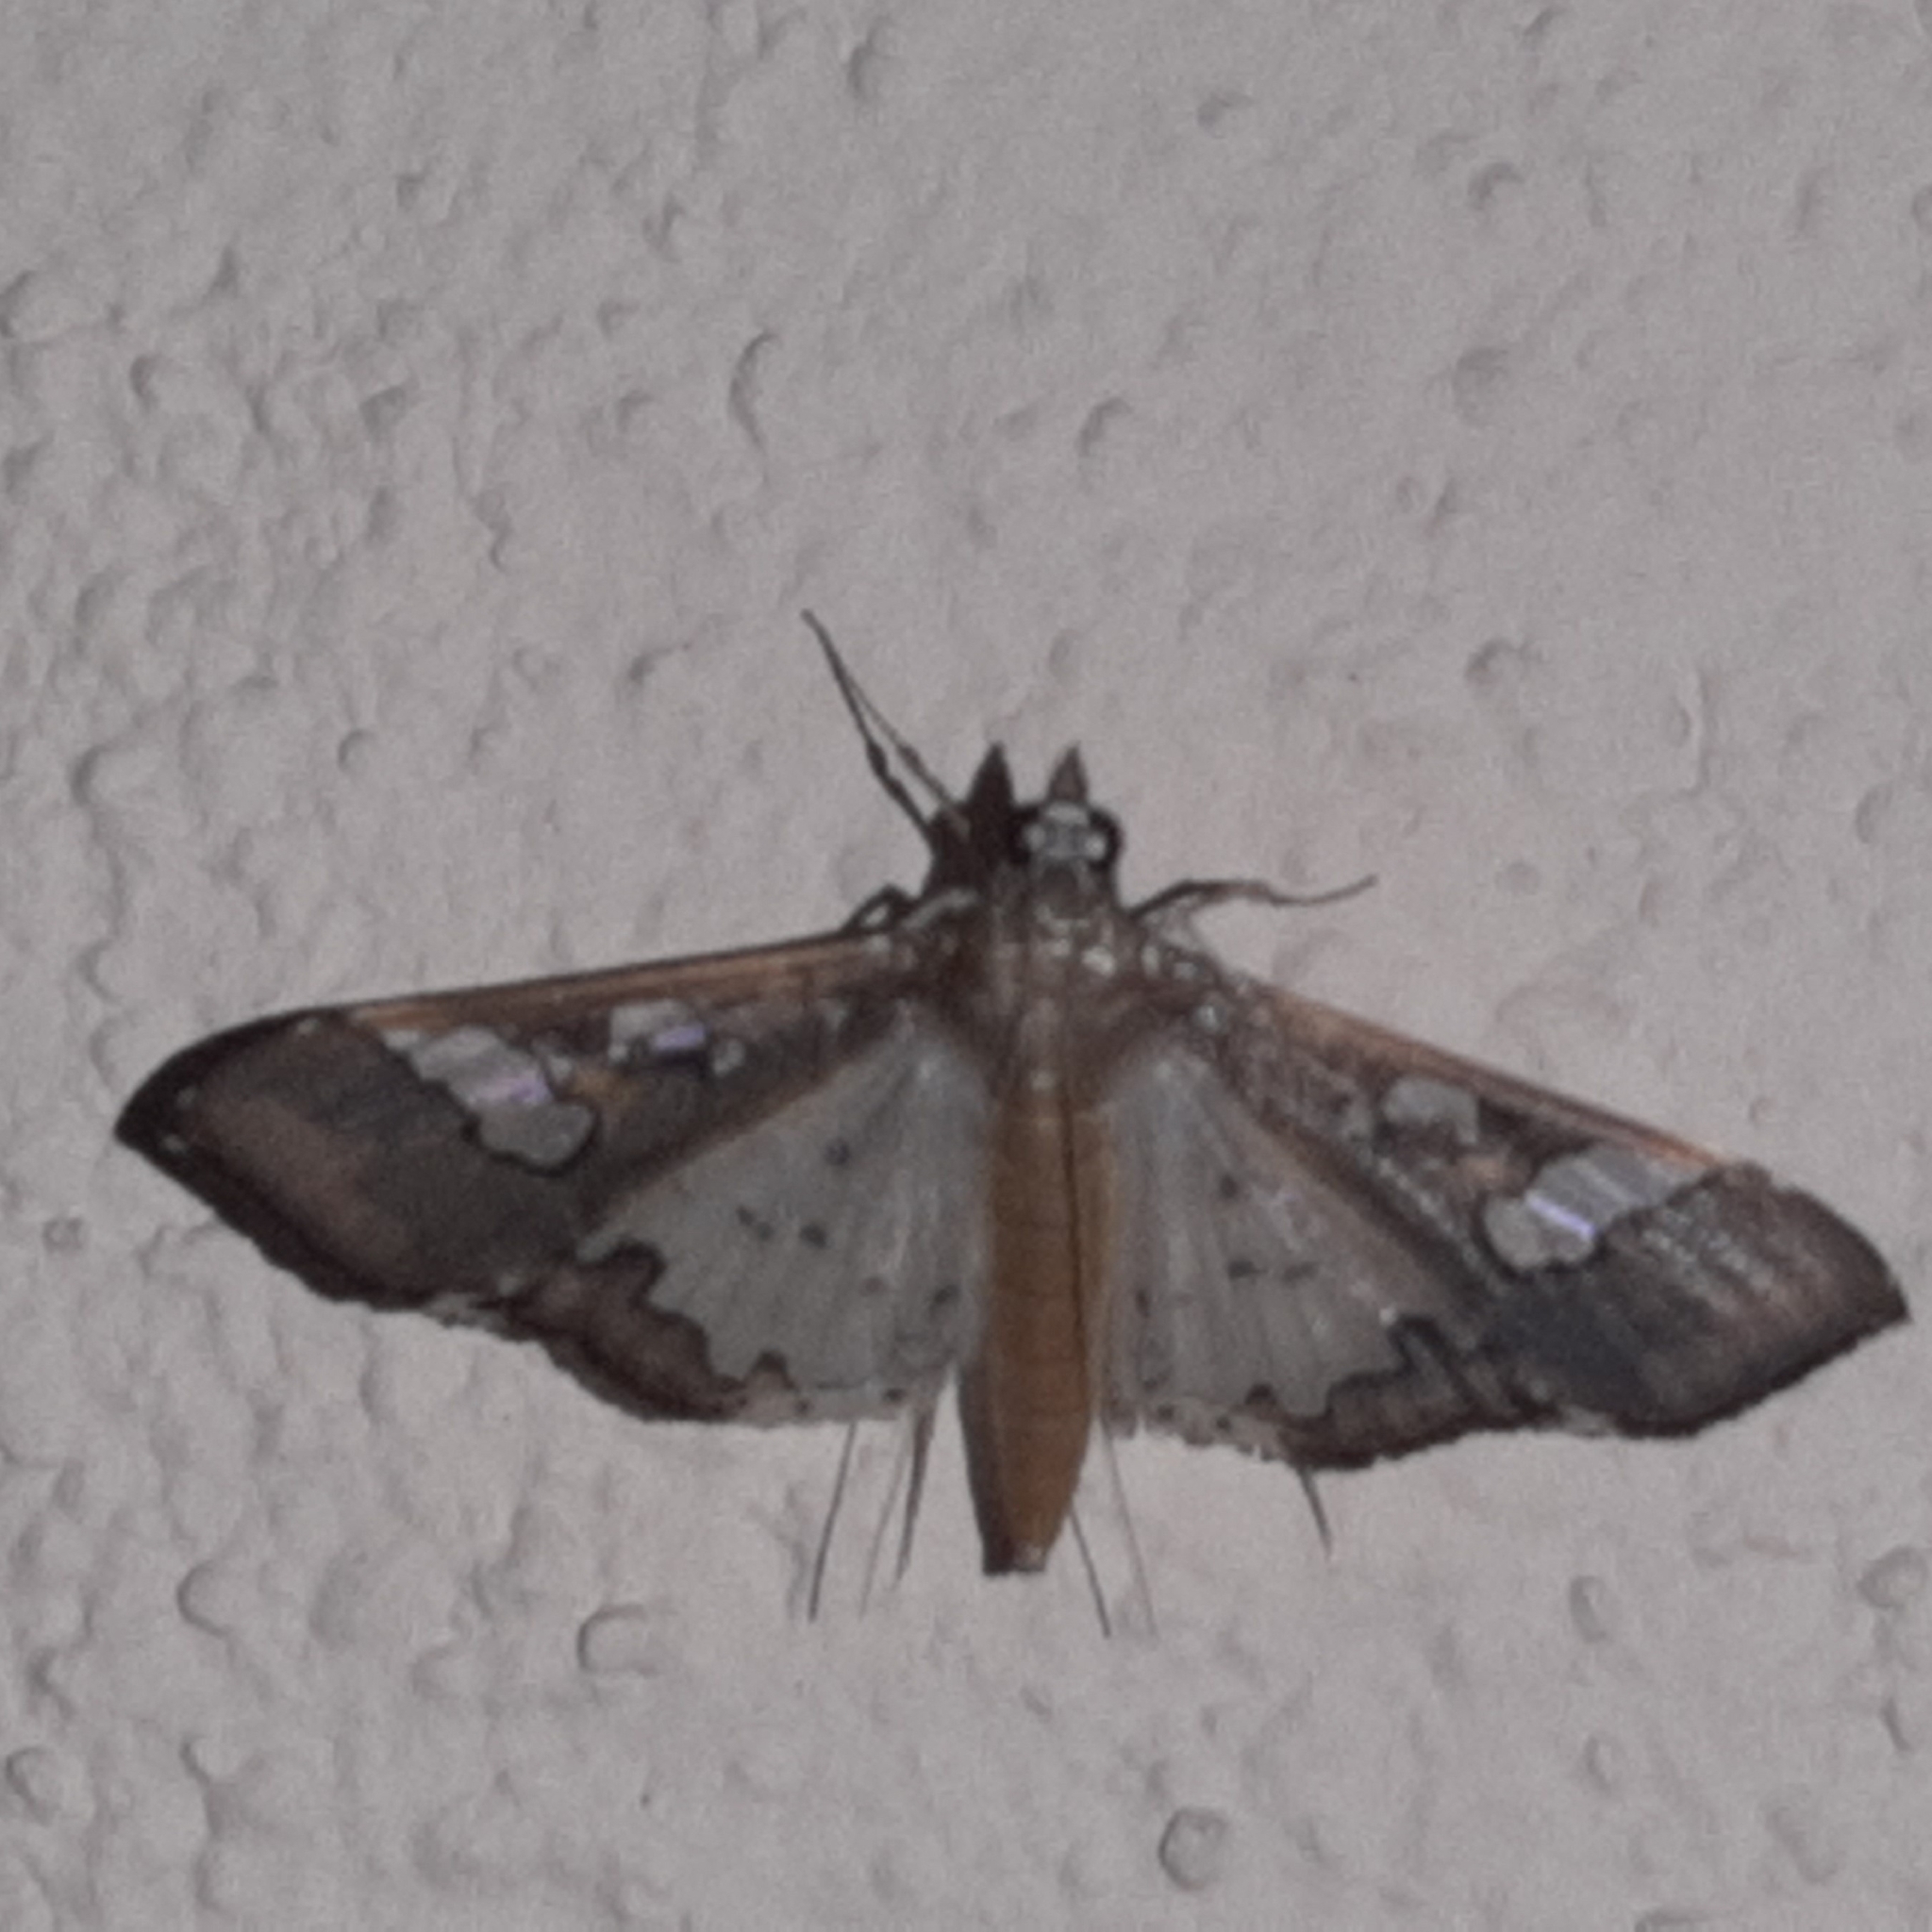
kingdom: Animalia
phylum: Arthropoda
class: Insecta
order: Lepidoptera
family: Crambidae
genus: Maruca
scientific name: Maruca vitrata
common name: Maruca pod borer
